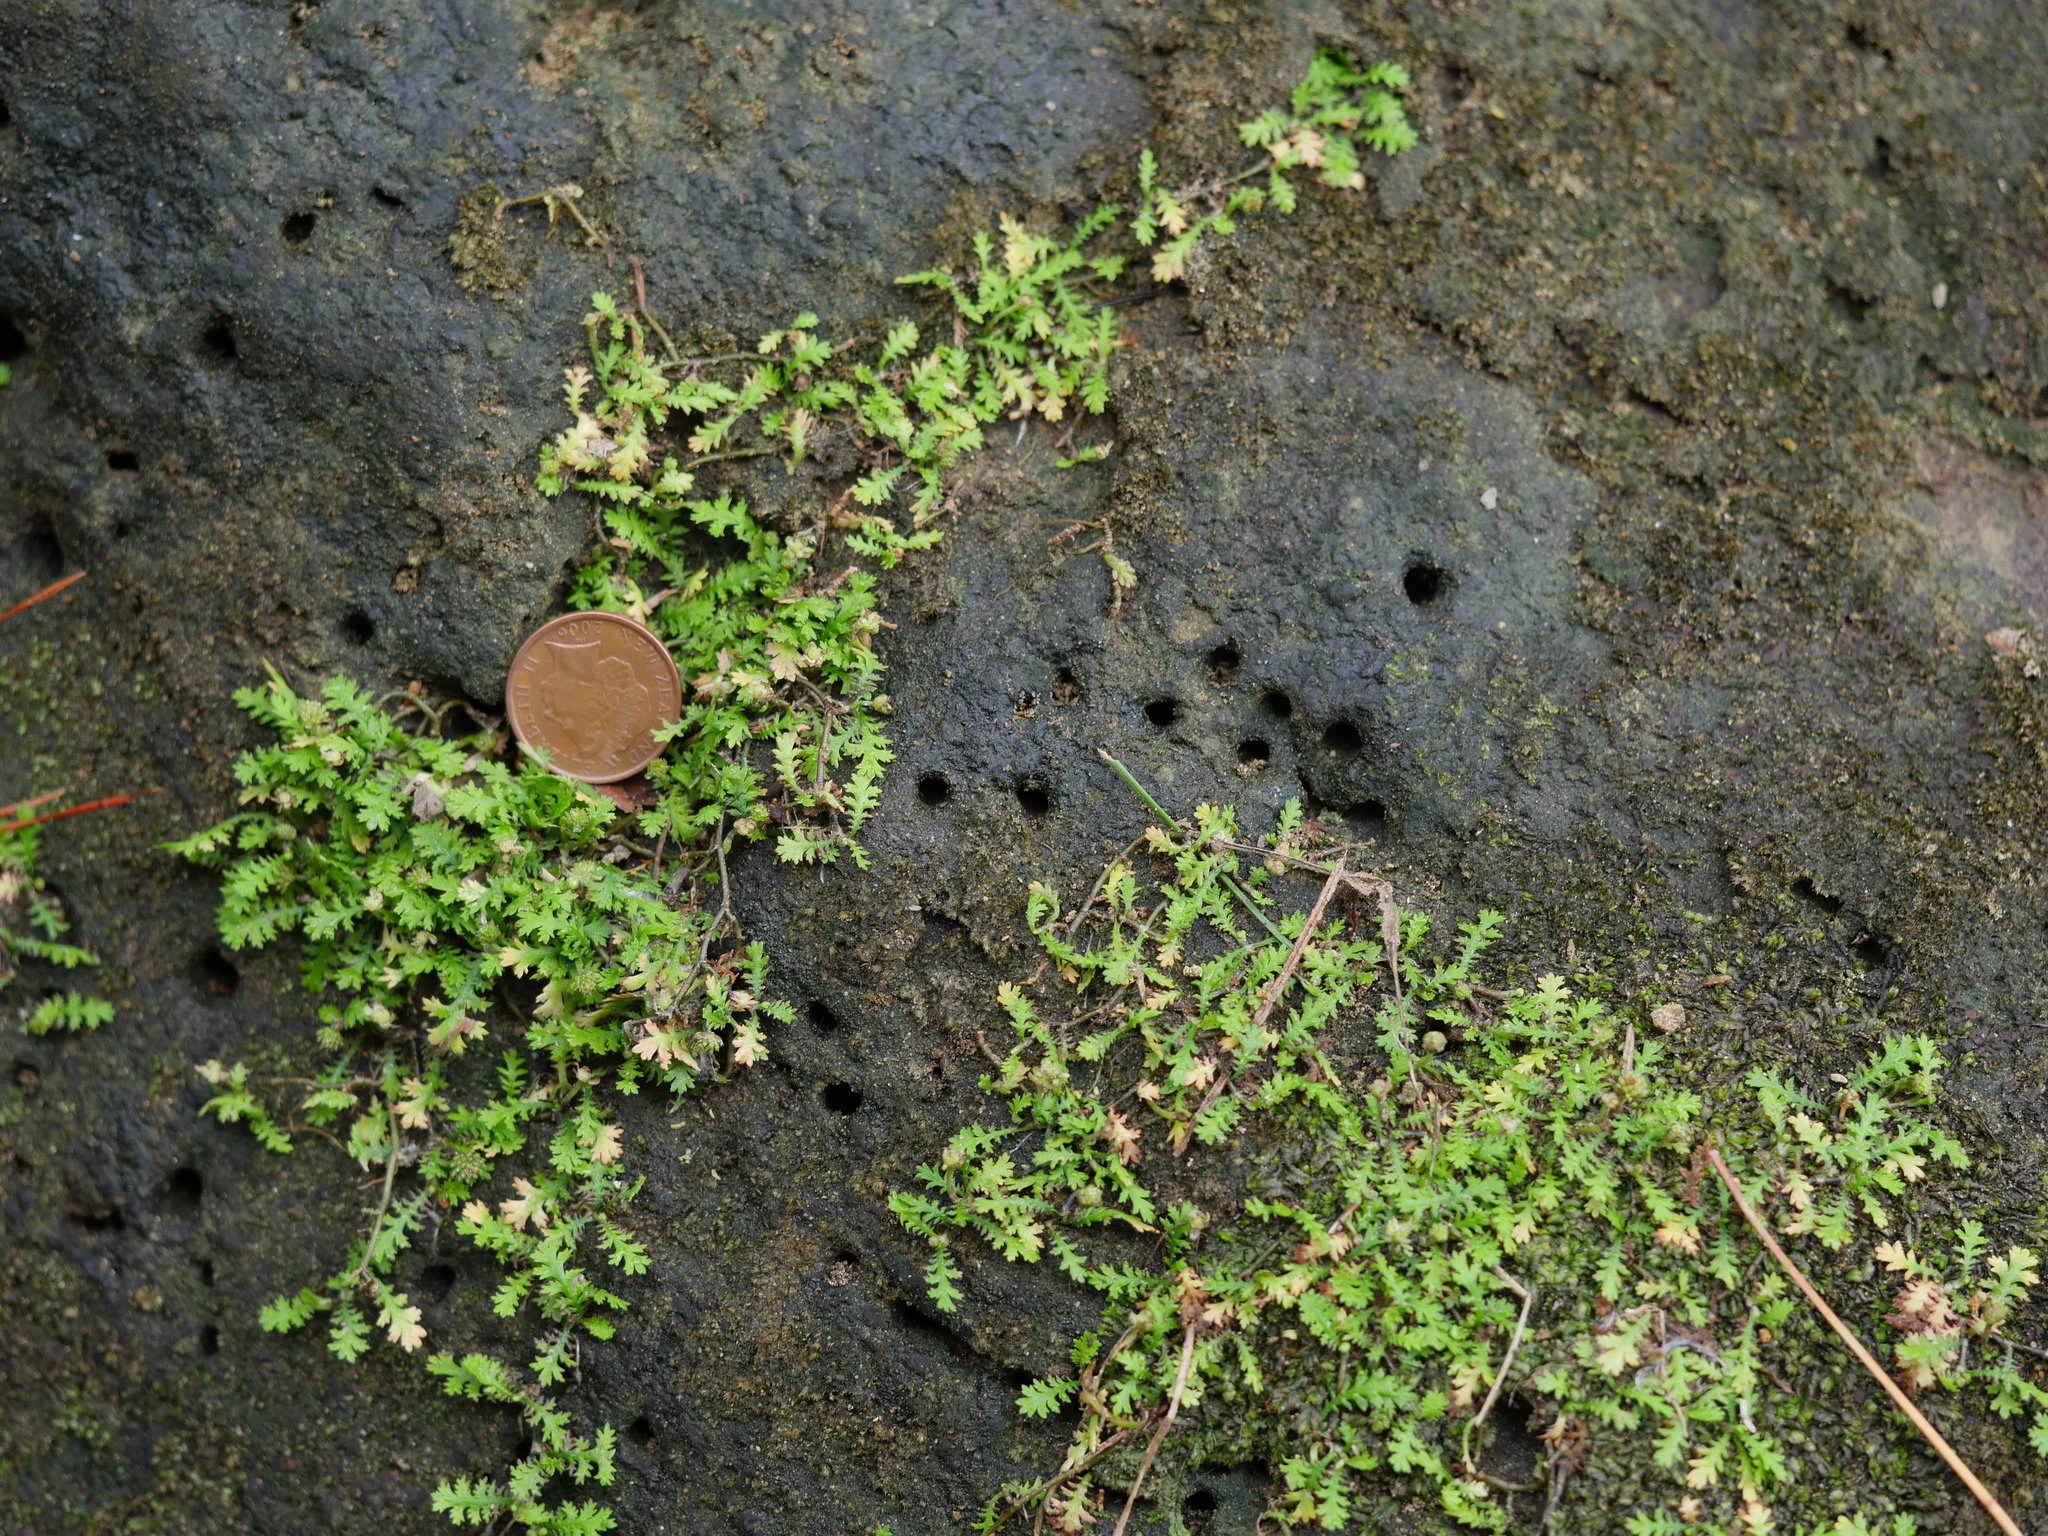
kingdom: Plantae
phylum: Tracheophyta
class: Magnoliopsida
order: Asterales
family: Asteraceae
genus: Leptinella
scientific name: Leptinella tenella
